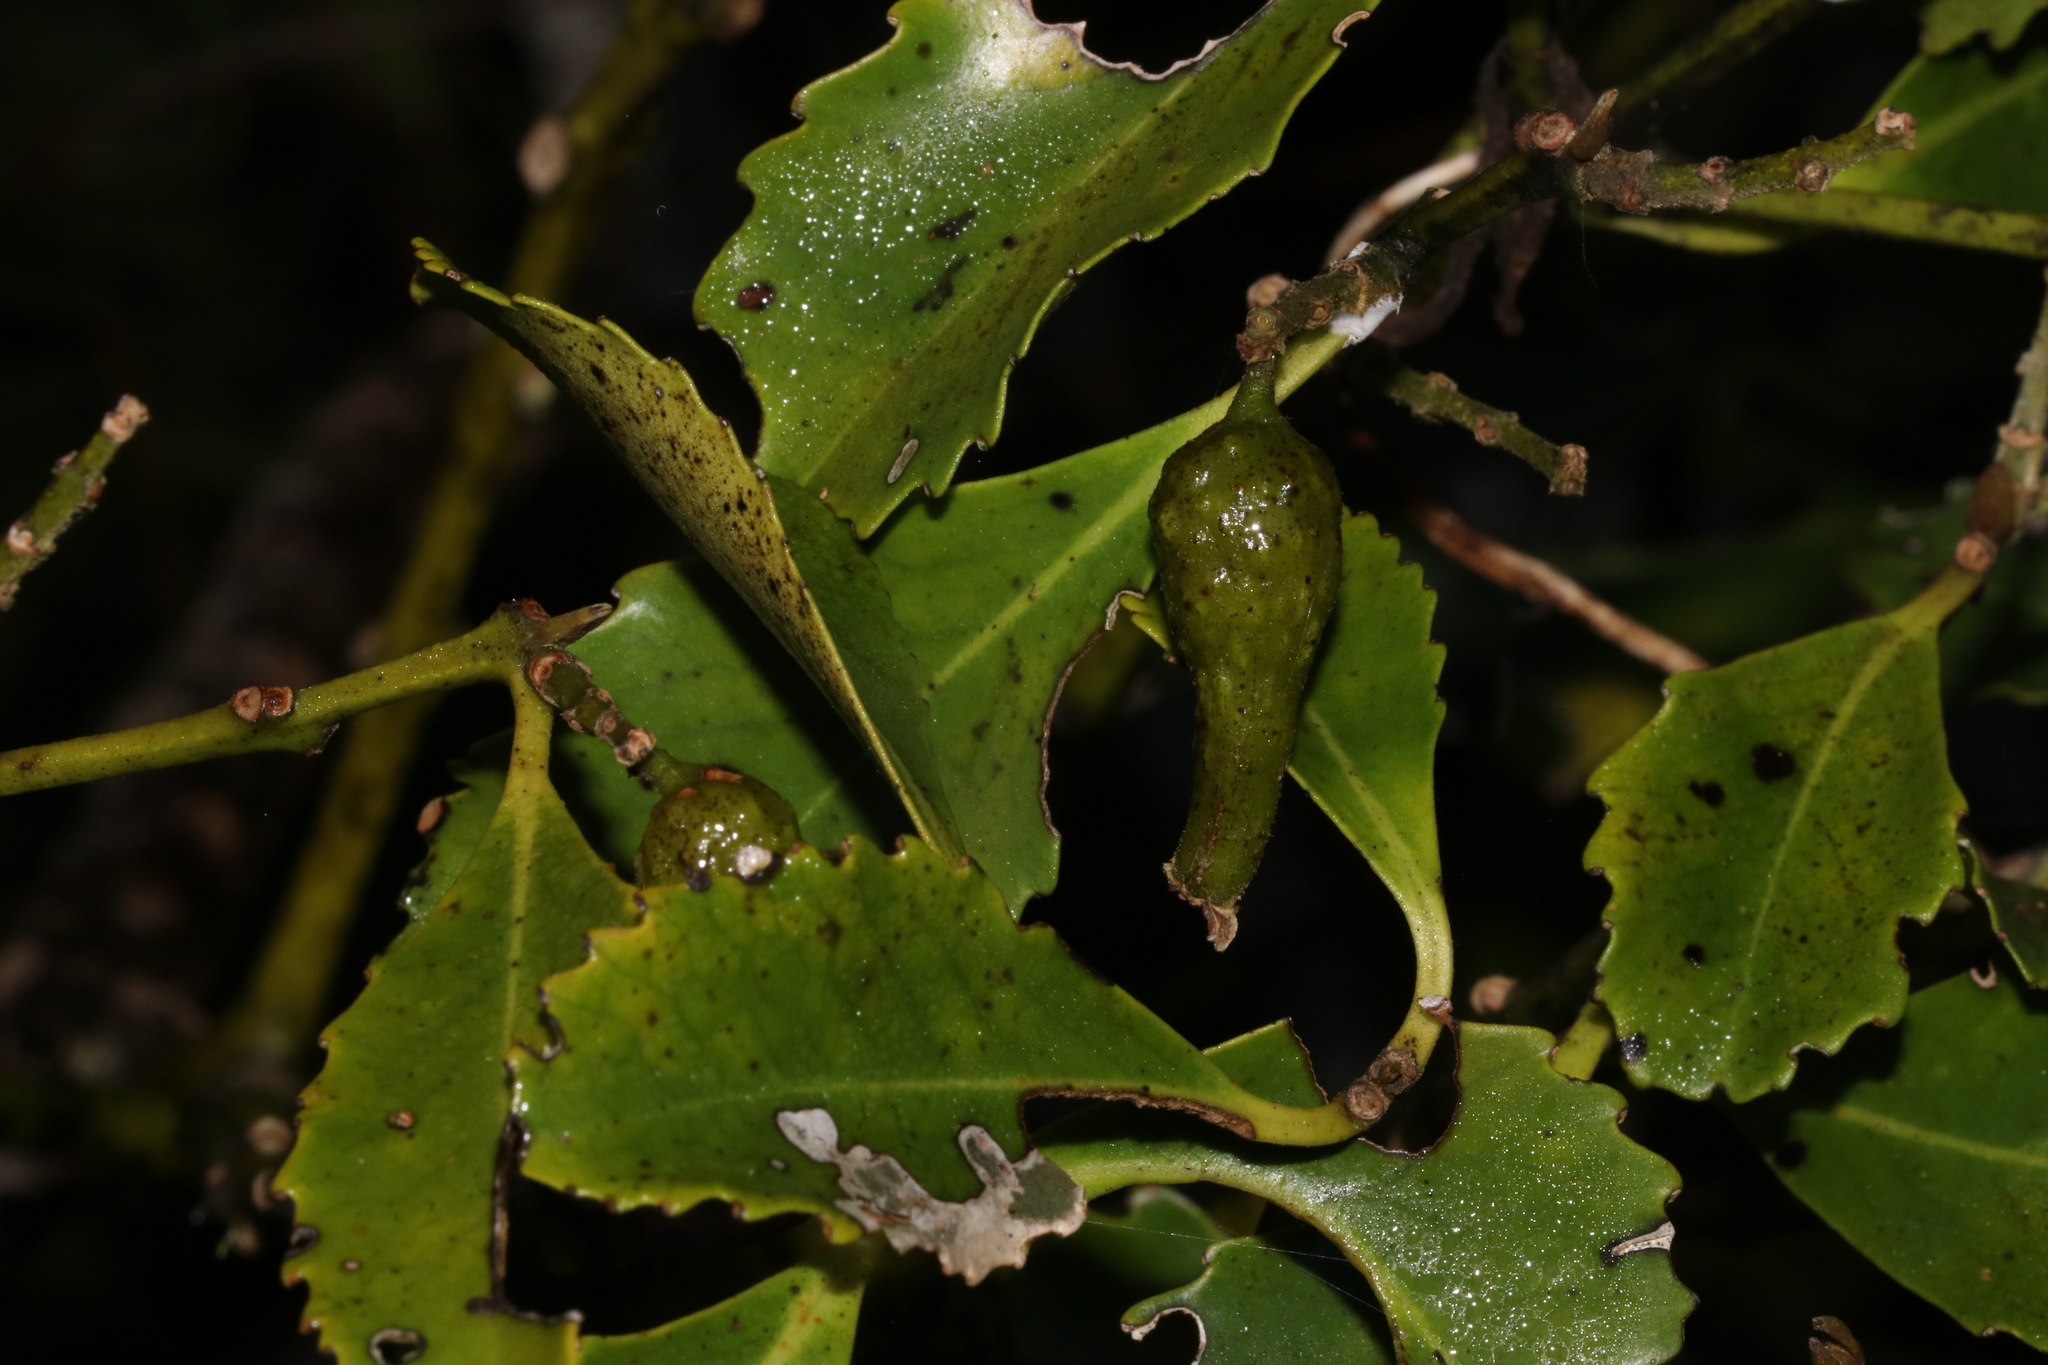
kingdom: Plantae
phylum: Tracheophyta
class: Magnoliopsida
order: Laurales
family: Atherospermataceae
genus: Laurelia
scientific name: Laurelia novae-zelandiae
